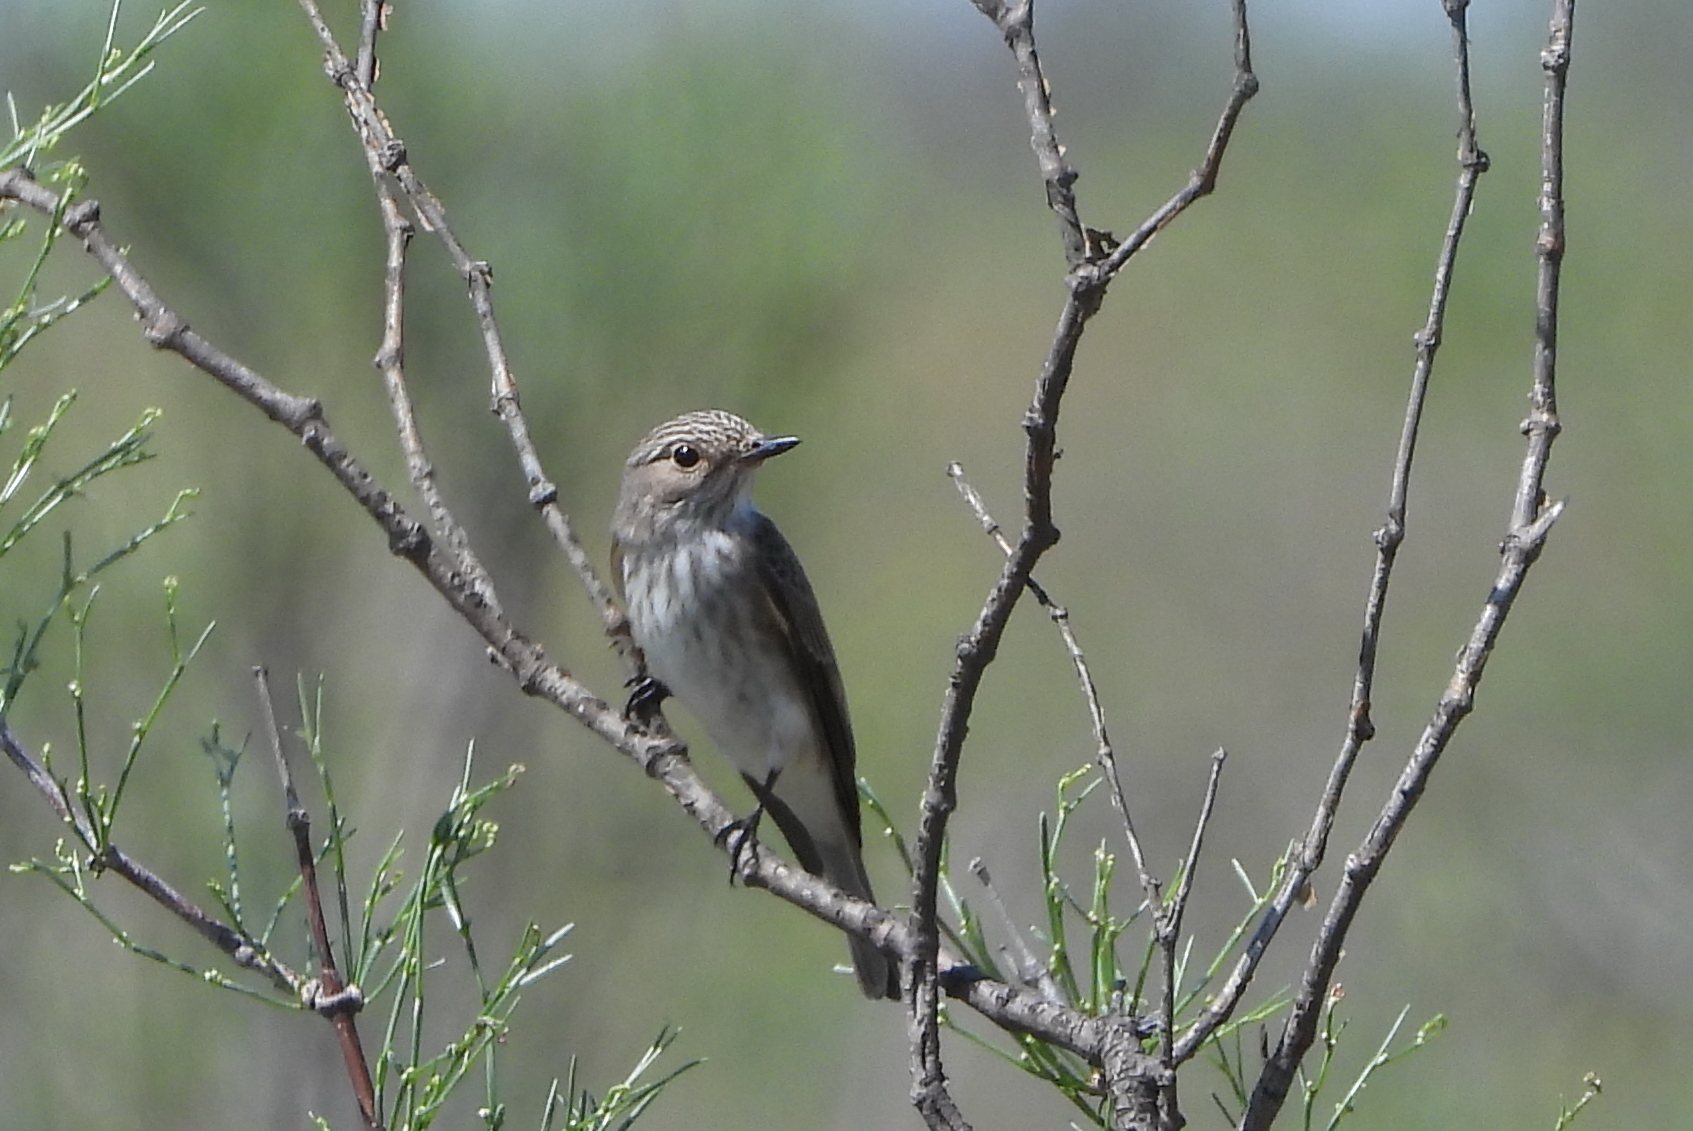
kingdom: Animalia
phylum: Chordata
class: Aves
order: Passeriformes
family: Muscicapidae
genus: Muscicapa
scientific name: Muscicapa striata
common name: Spotted flycatcher
